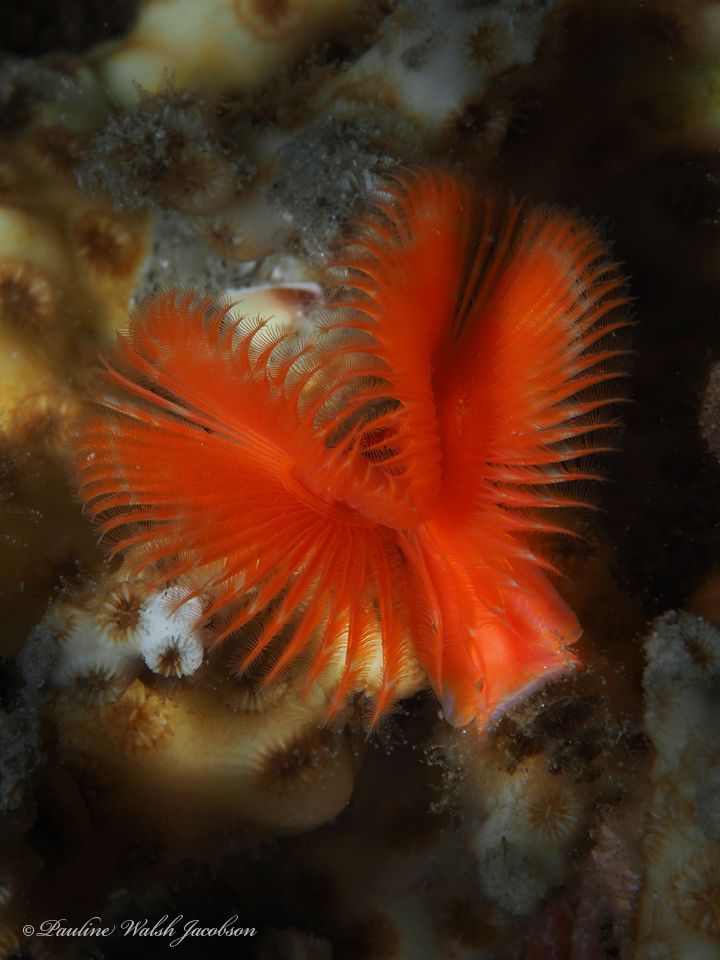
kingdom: Animalia
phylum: Annelida
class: Polychaeta
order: Sabellida
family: Serpulidae
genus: Pomatostegus
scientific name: Pomatostegus stellatus
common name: Star tubeworm
